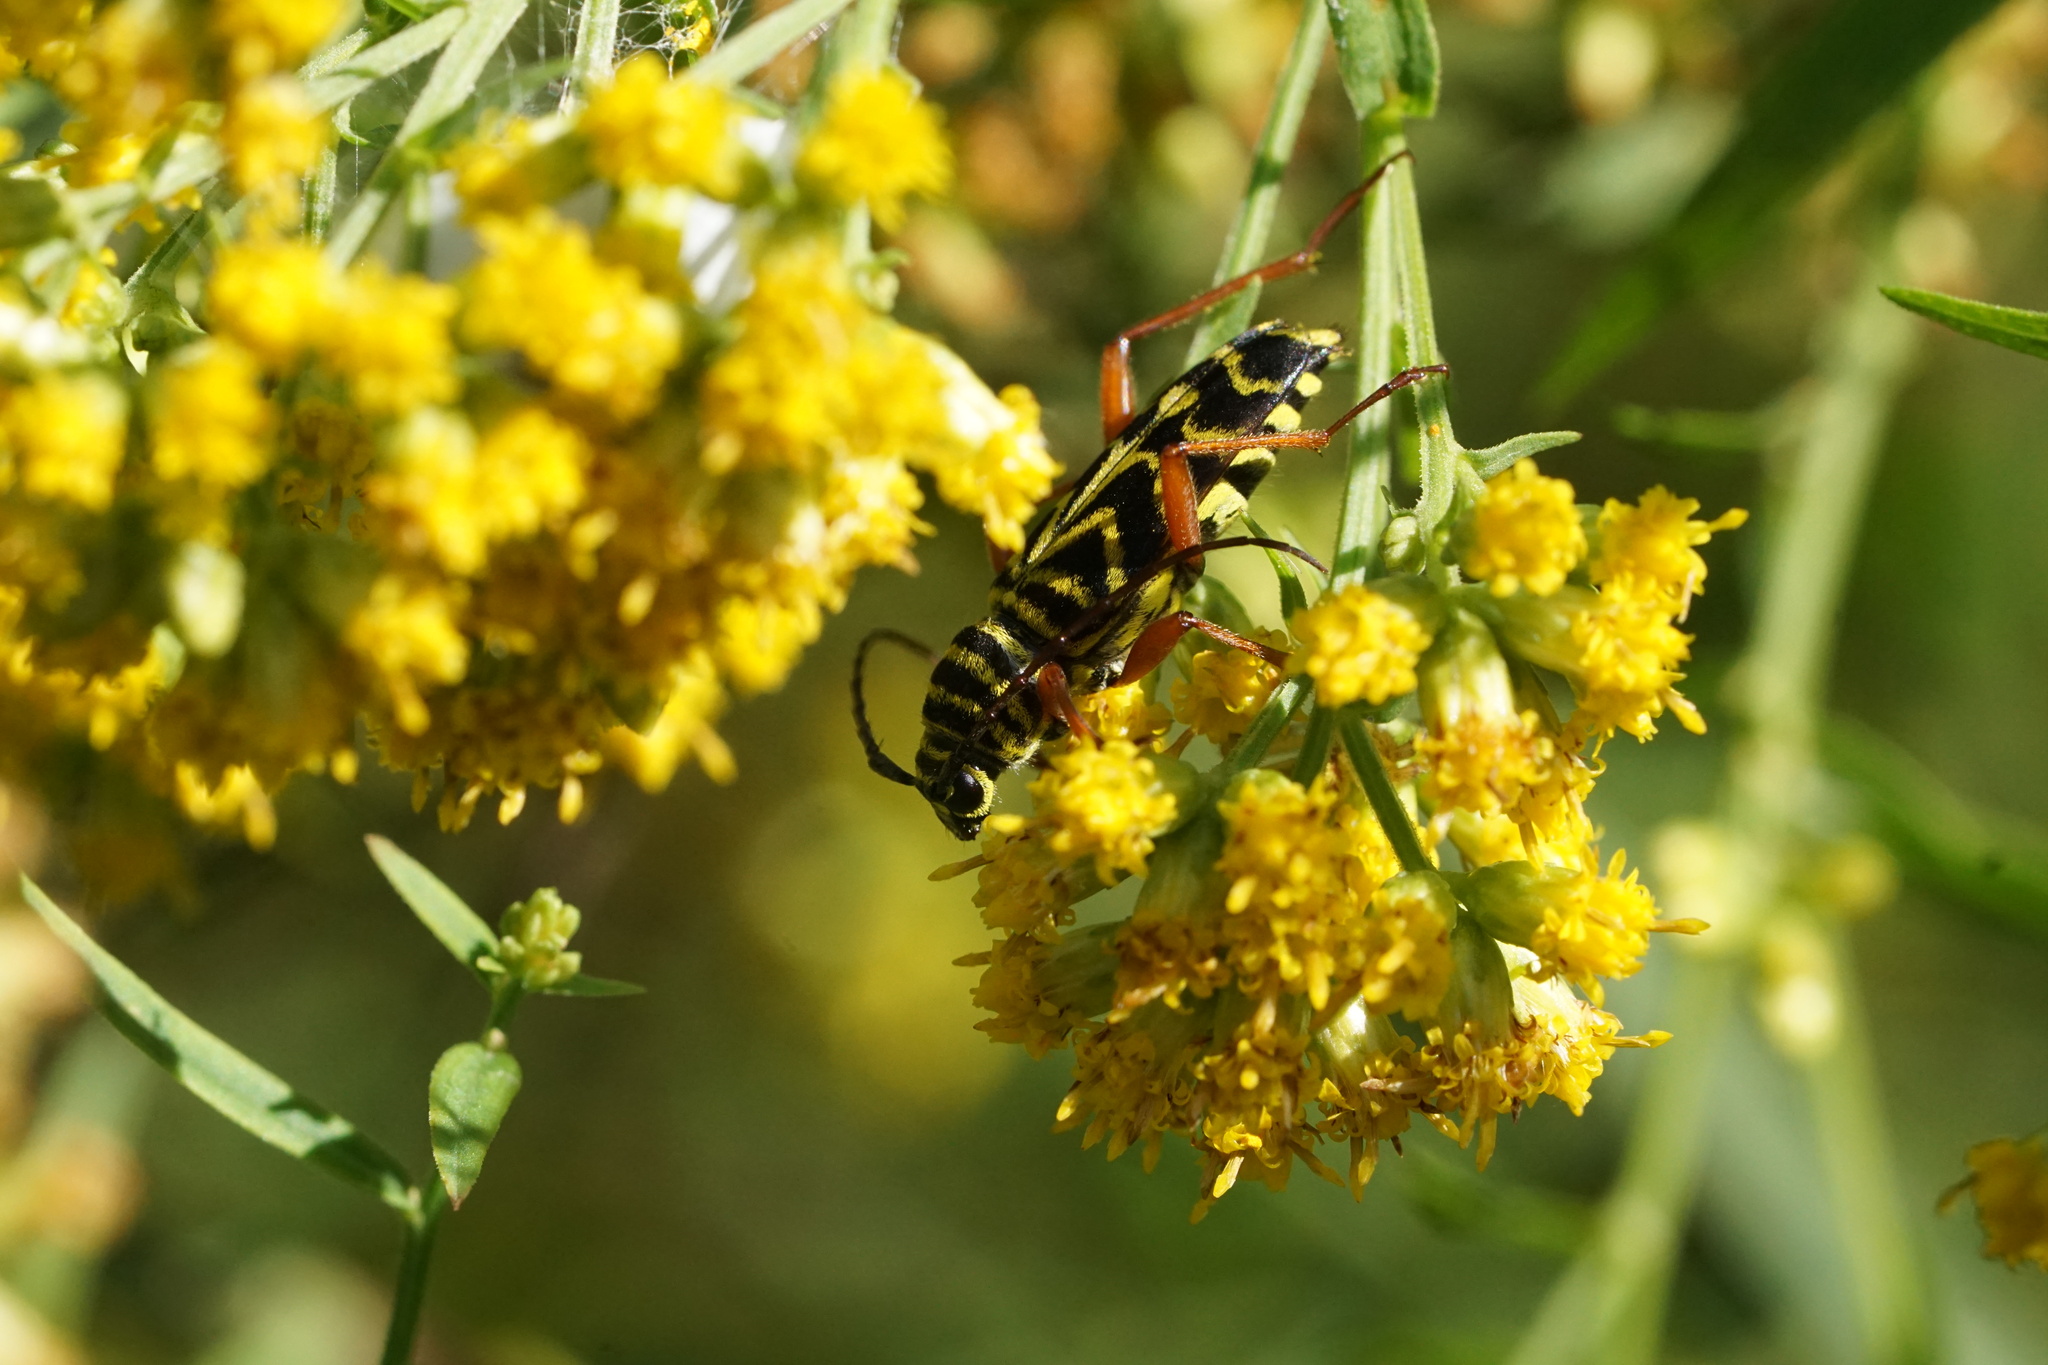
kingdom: Animalia
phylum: Arthropoda
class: Insecta
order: Coleoptera
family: Cerambycidae
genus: Megacyllene
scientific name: Megacyllene robiniae
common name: Locust borer
